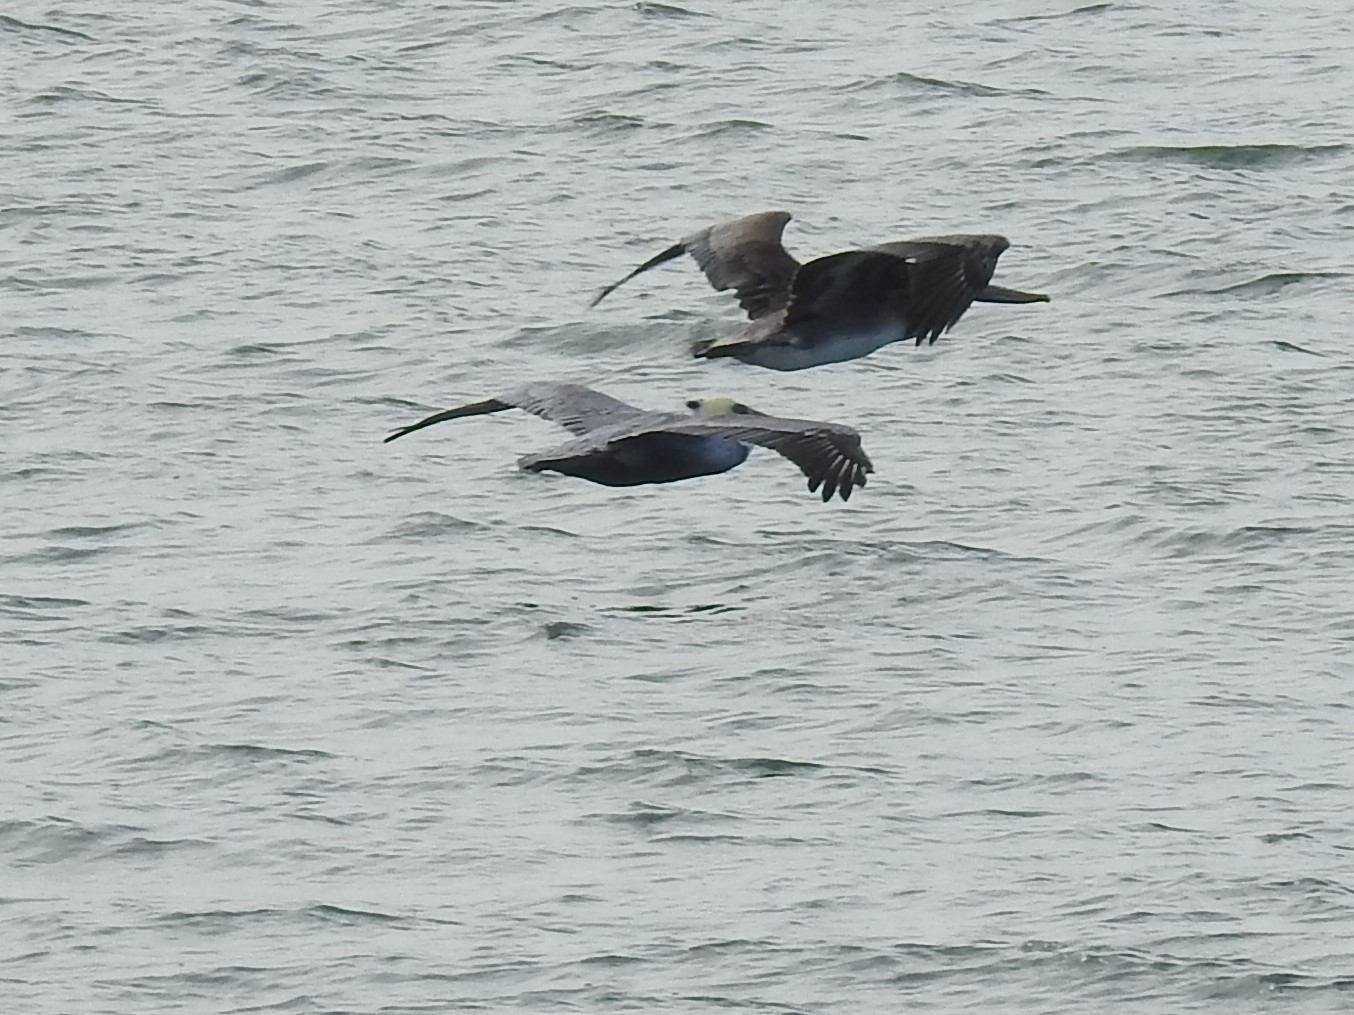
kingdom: Animalia
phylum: Chordata
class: Aves
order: Pelecaniformes
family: Pelecanidae
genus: Pelecanus
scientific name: Pelecanus occidentalis
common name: Brown pelican
